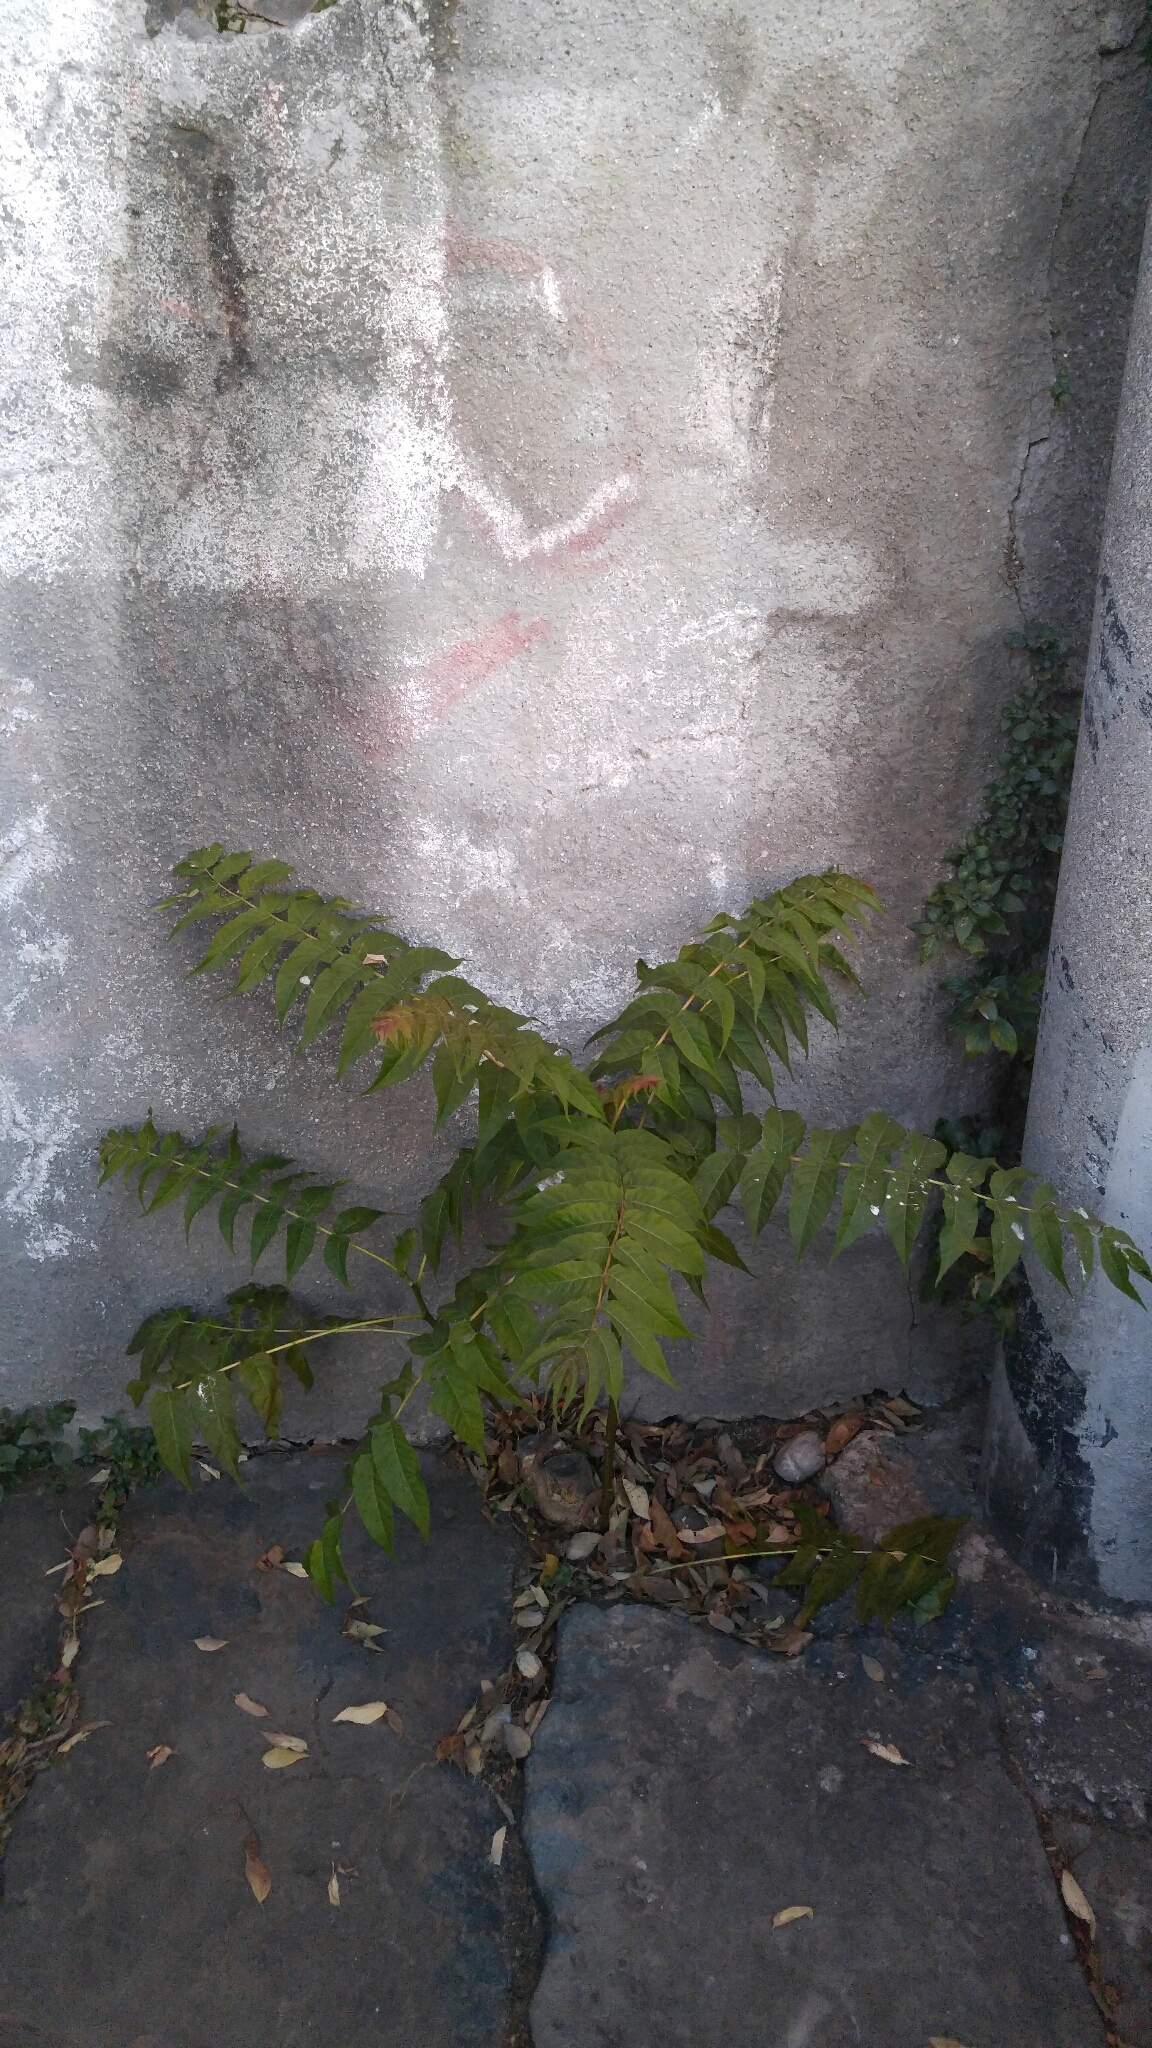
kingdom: Plantae
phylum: Tracheophyta
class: Magnoliopsida
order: Sapindales
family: Simaroubaceae
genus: Ailanthus
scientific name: Ailanthus altissima
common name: Tree-of-heaven
